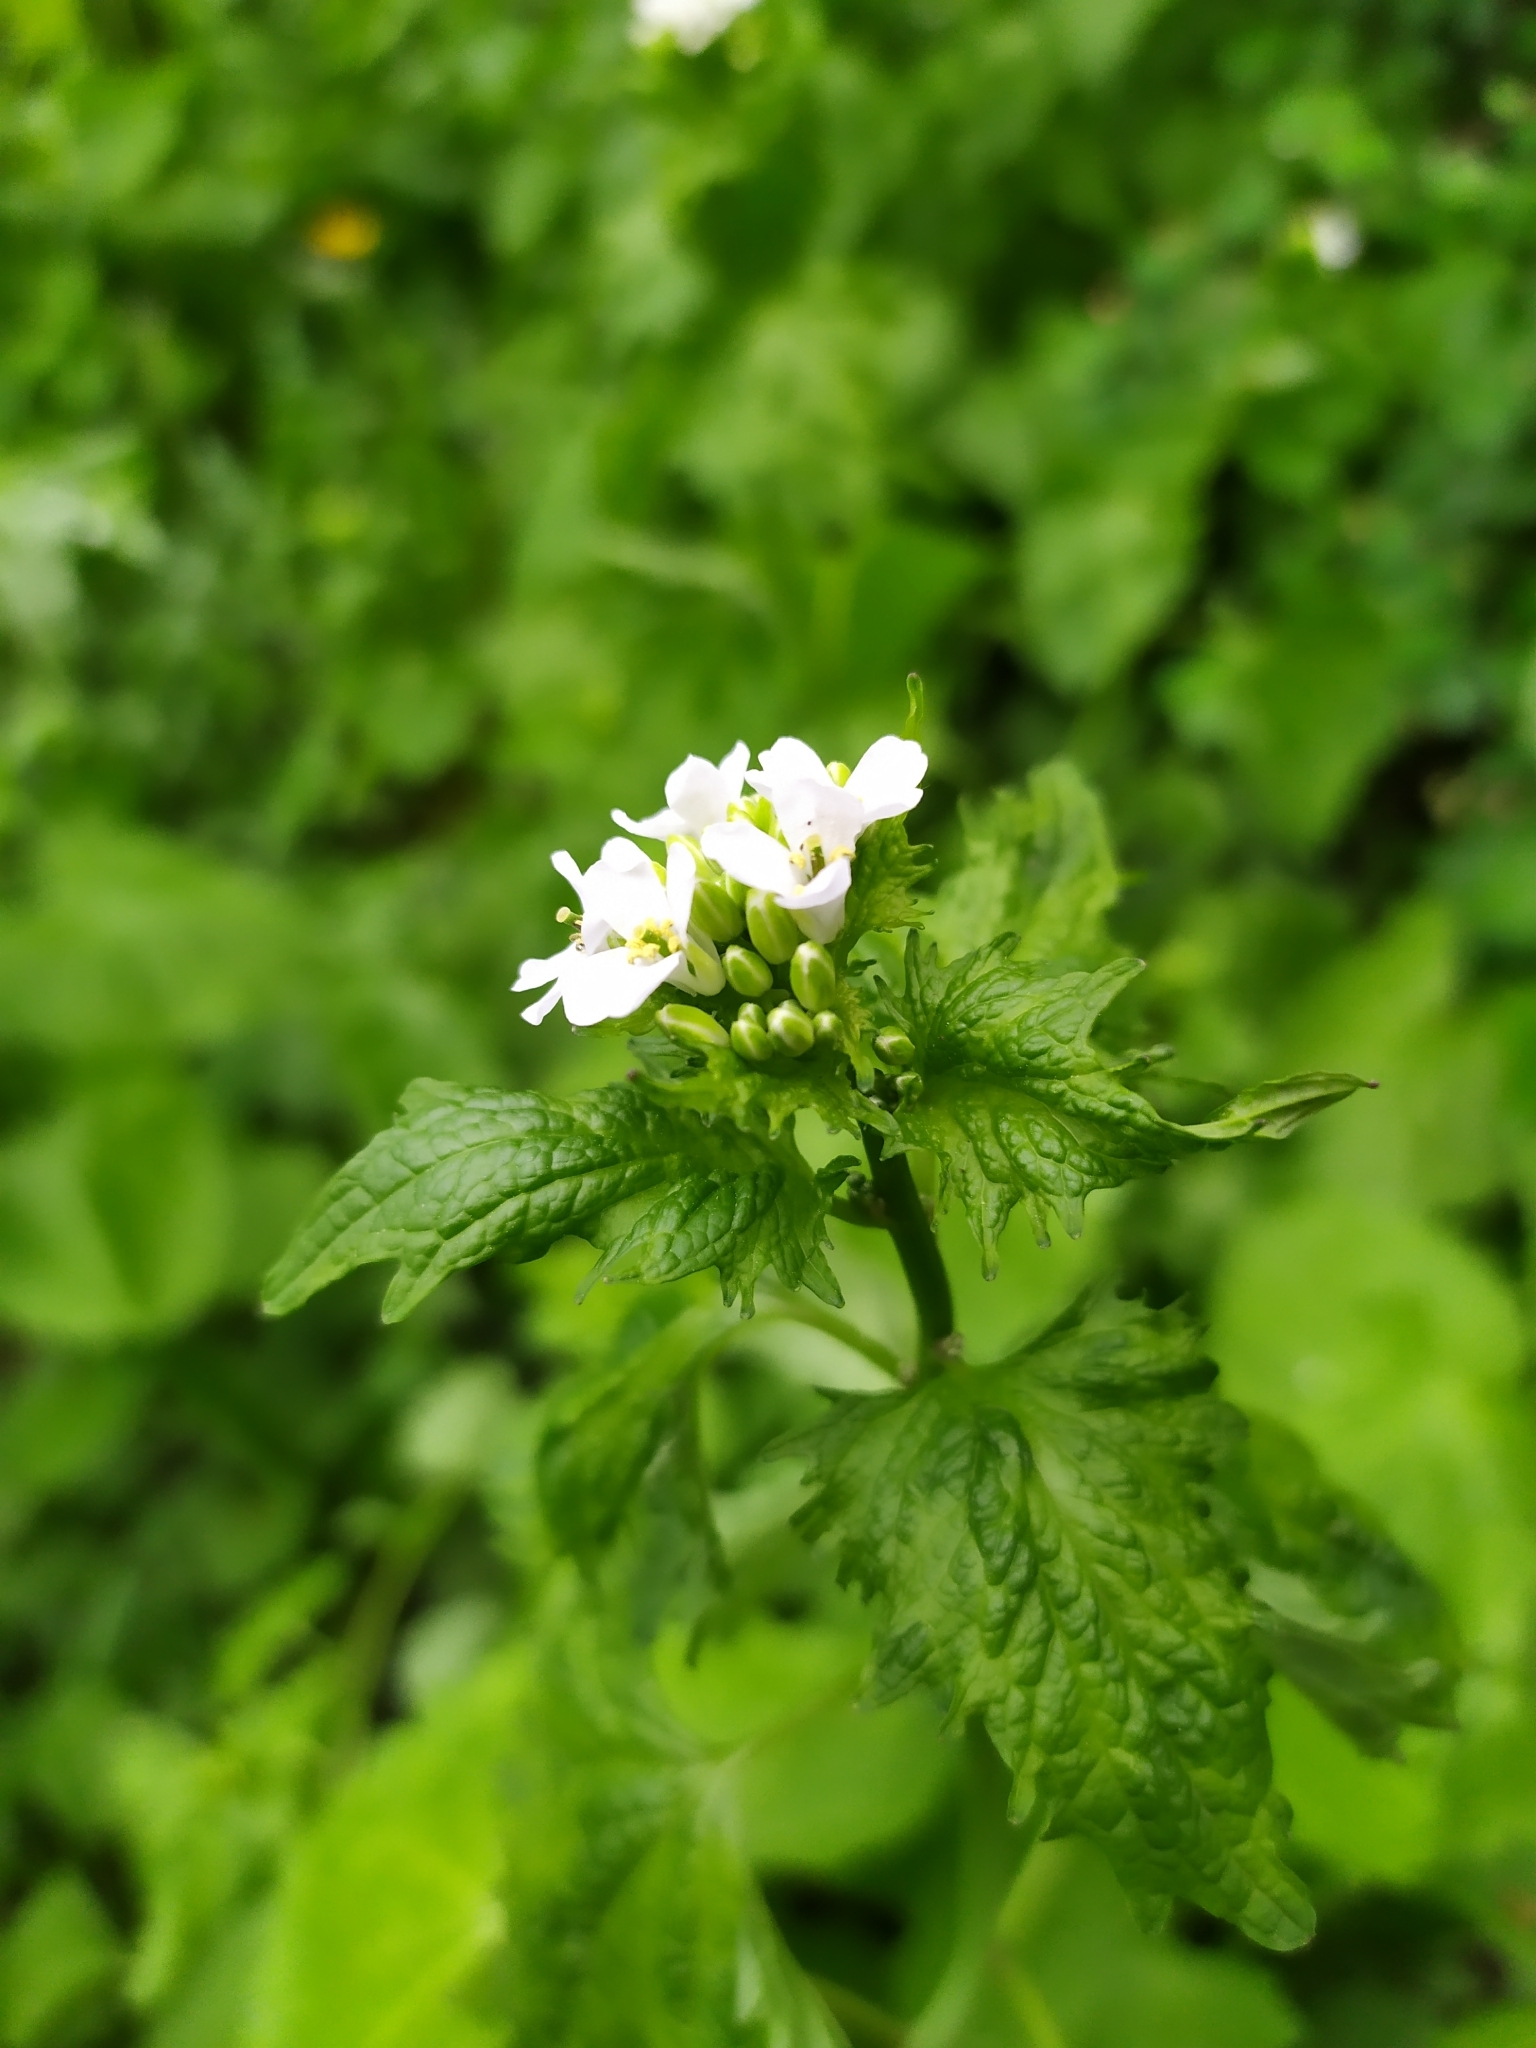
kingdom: Plantae
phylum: Tracheophyta
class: Magnoliopsida
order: Brassicales
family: Brassicaceae
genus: Alliaria
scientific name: Alliaria petiolata
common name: Garlic mustard
